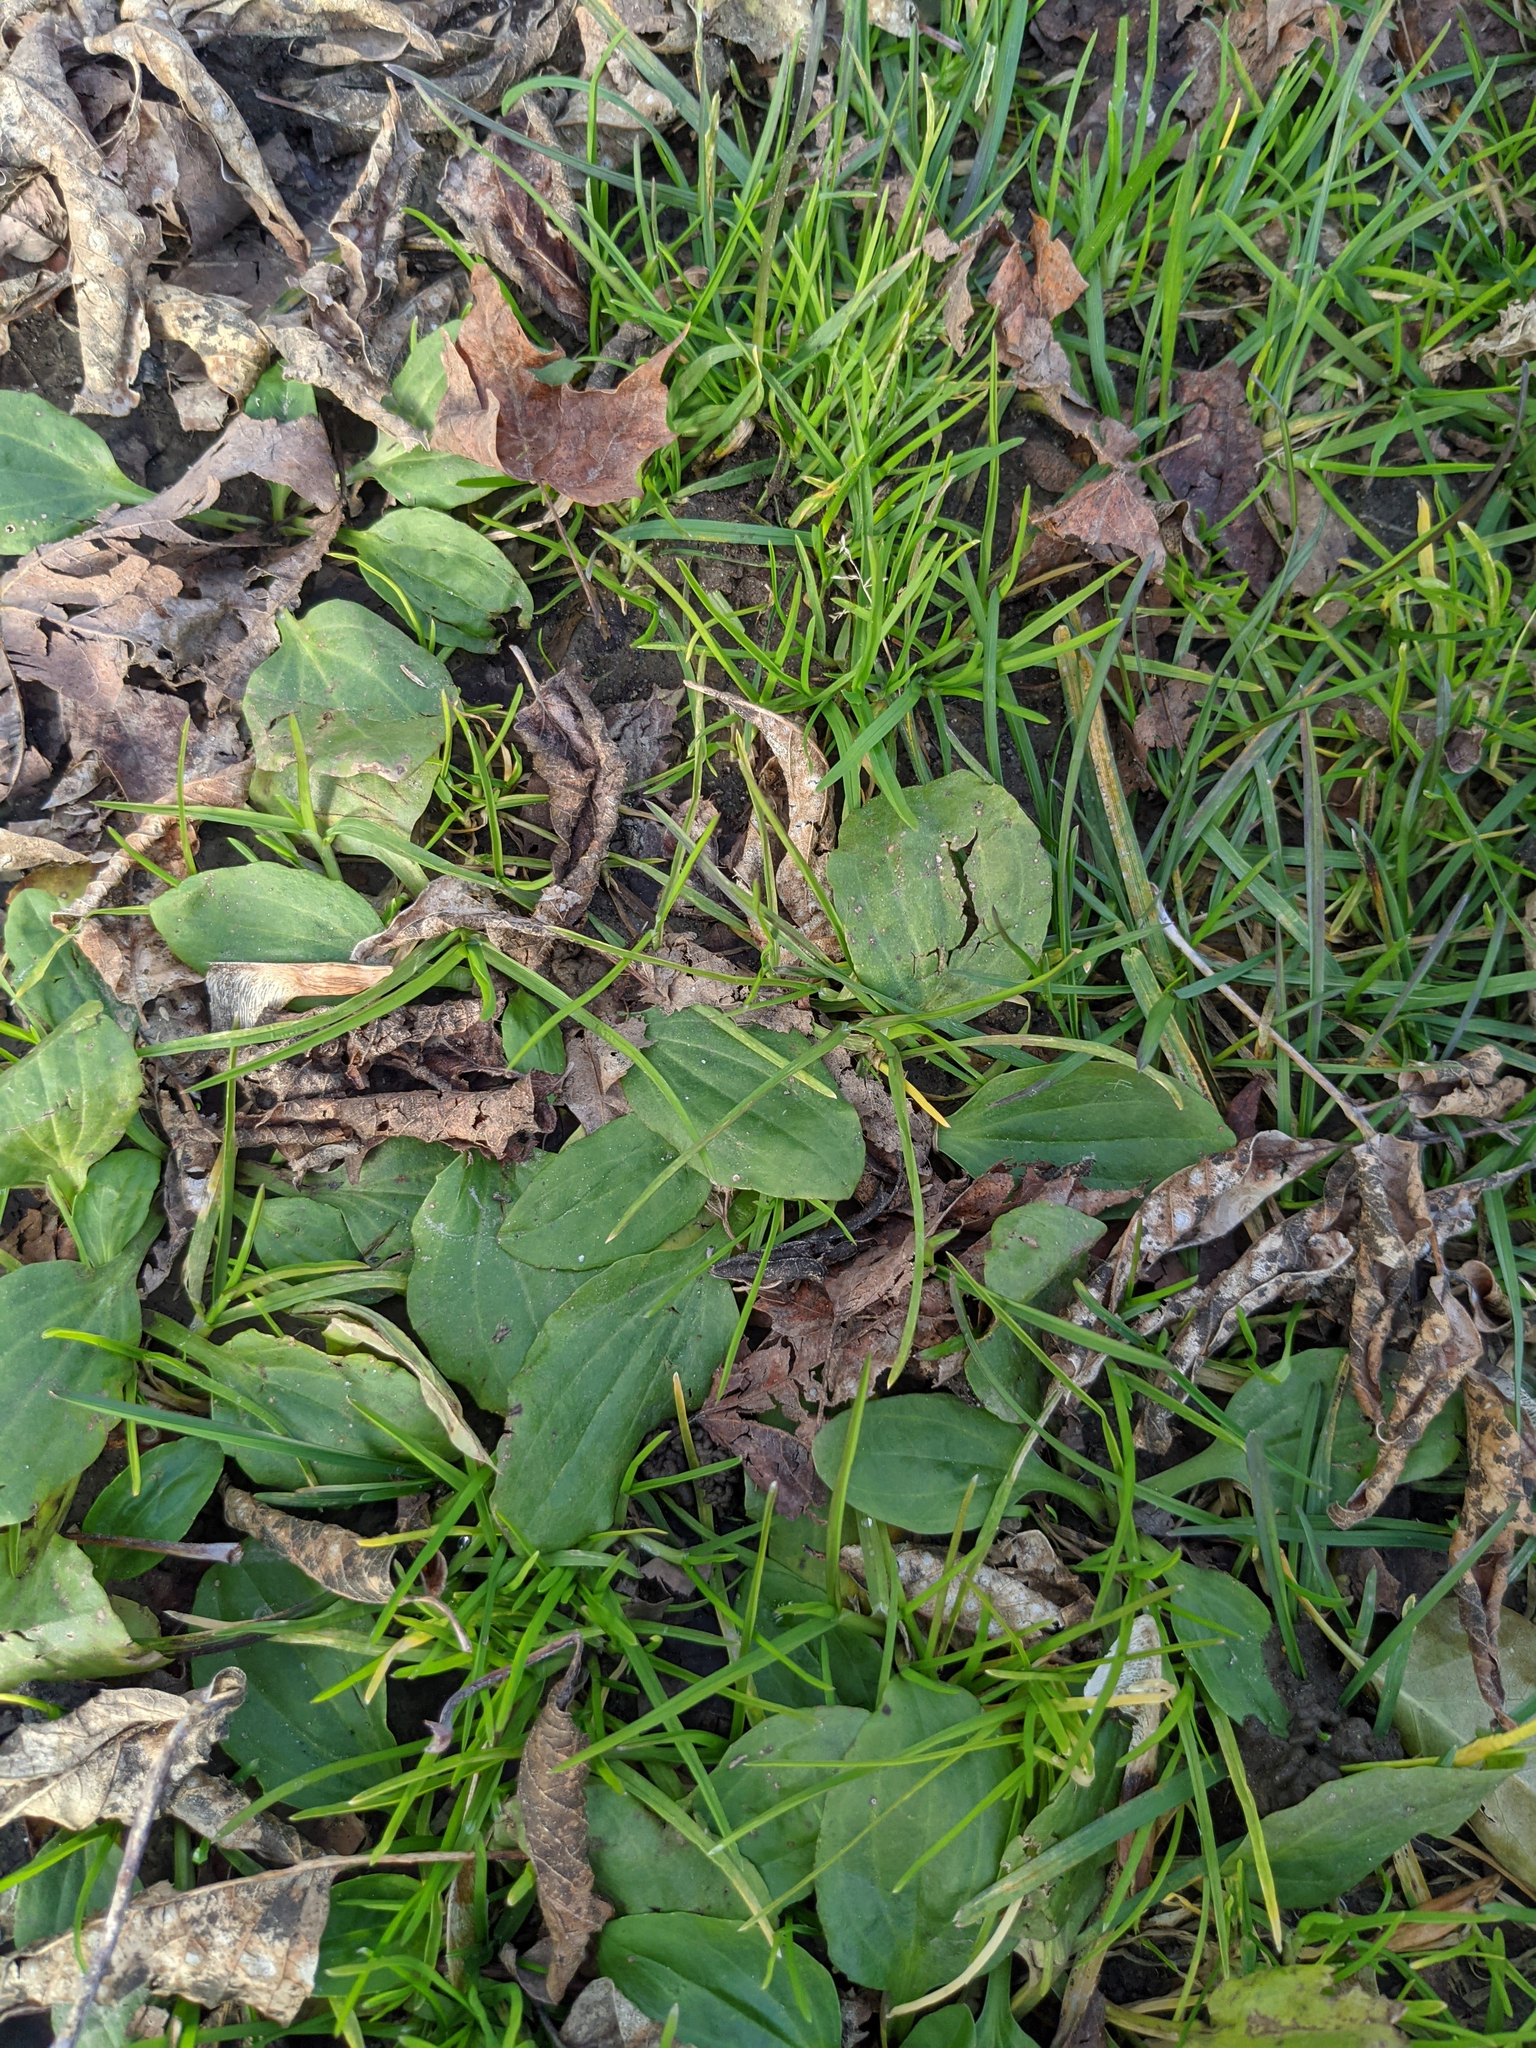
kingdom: Plantae
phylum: Tracheophyta
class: Magnoliopsida
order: Lamiales
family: Plantaginaceae
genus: Plantago
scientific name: Plantago major
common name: Common plantain
